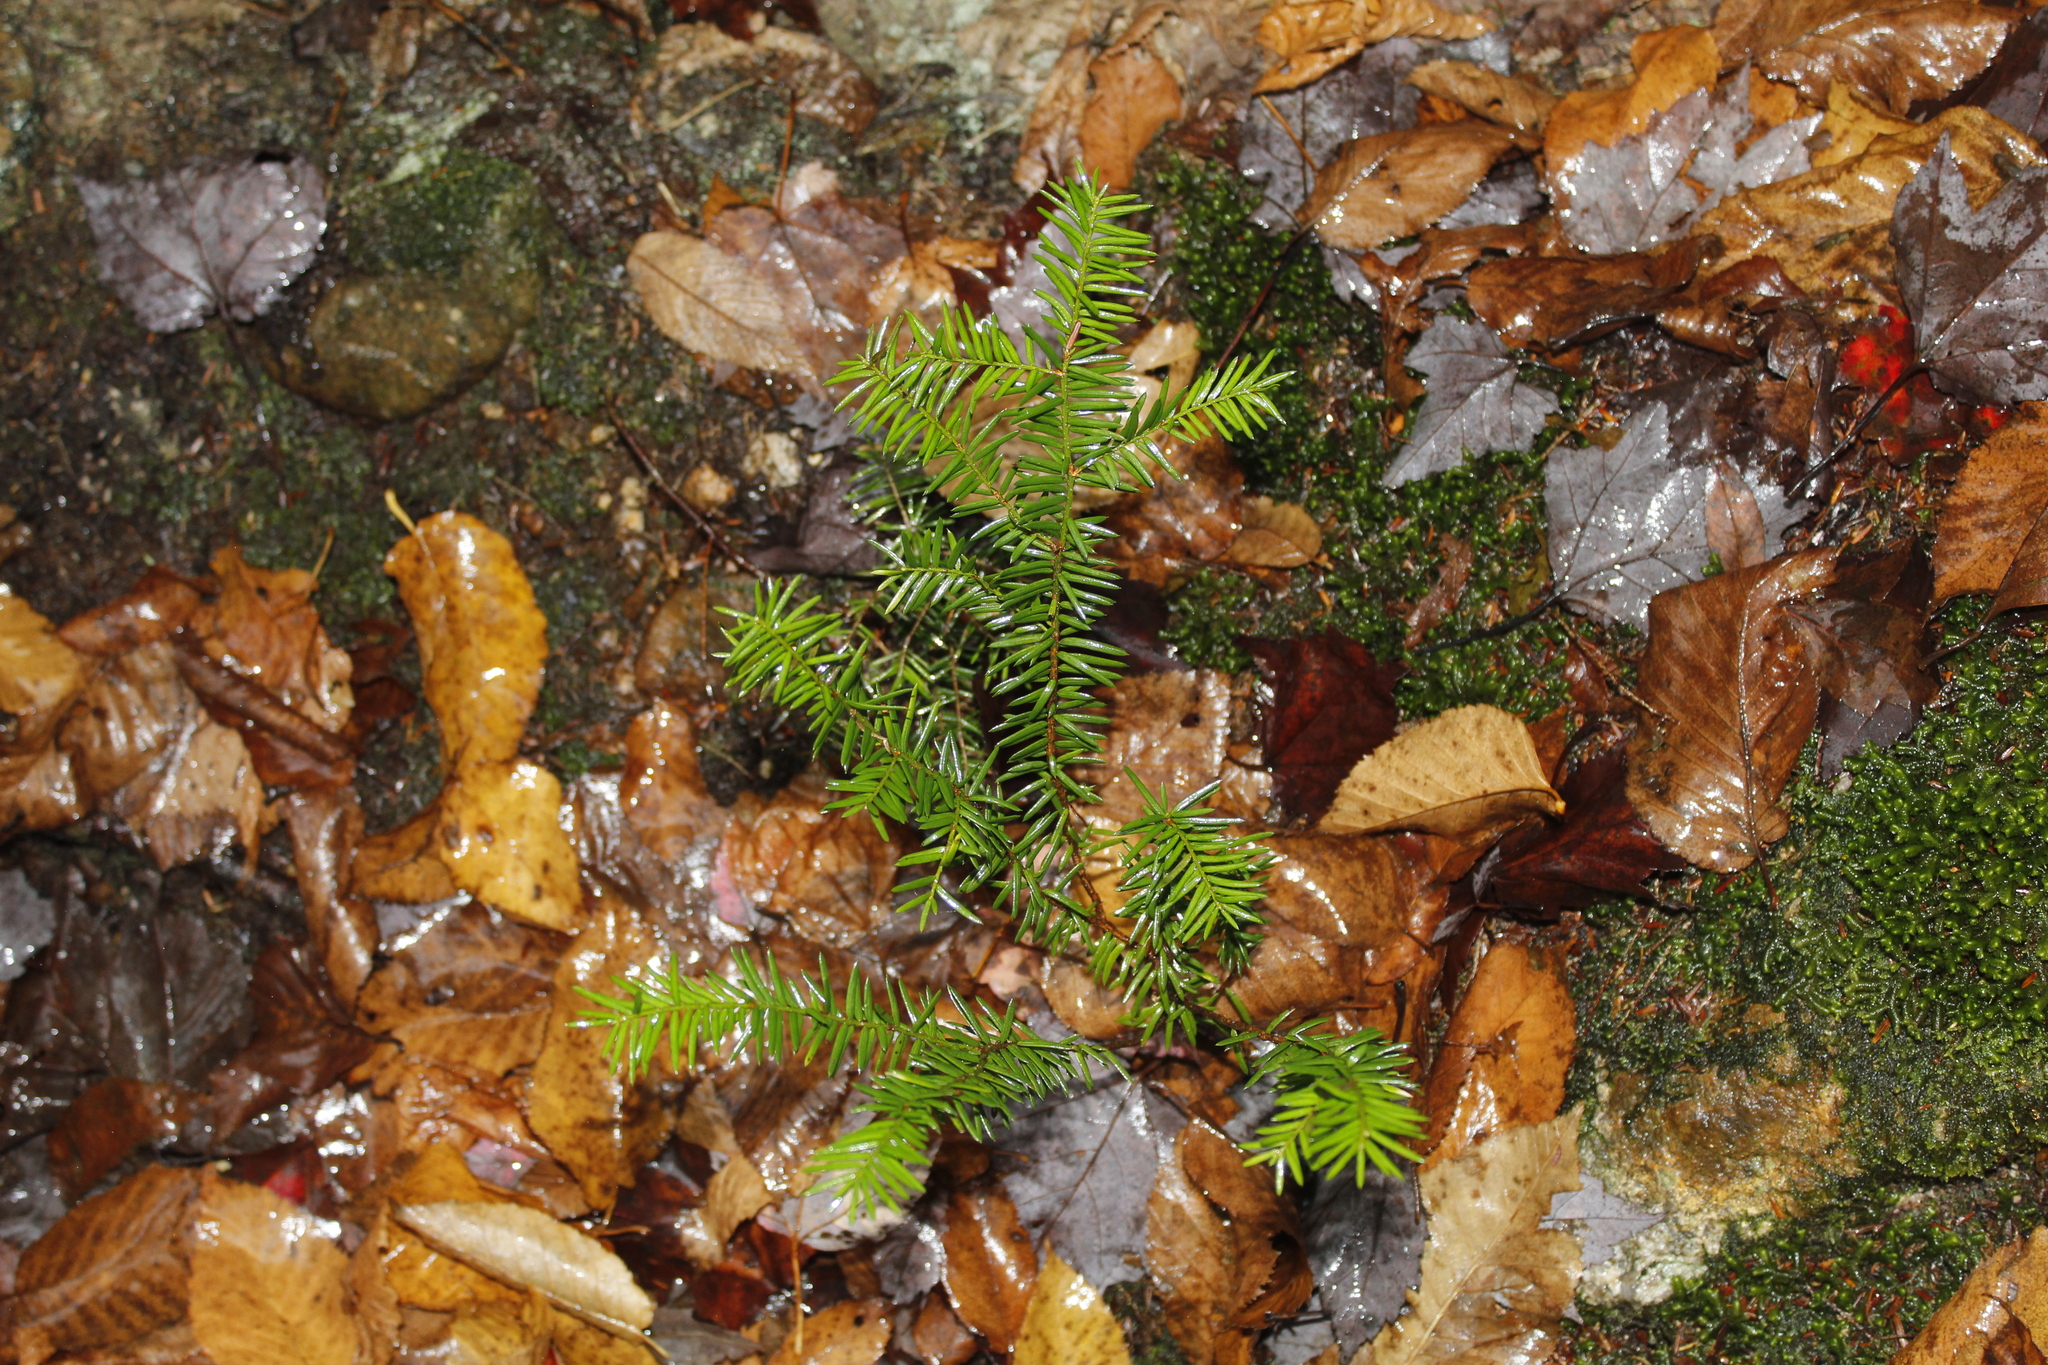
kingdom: Plantae
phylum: Tracheophyta
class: Pinopsida
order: Pinales
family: Taxaceae
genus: Taxus
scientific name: Taxus canadensis
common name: American yew
